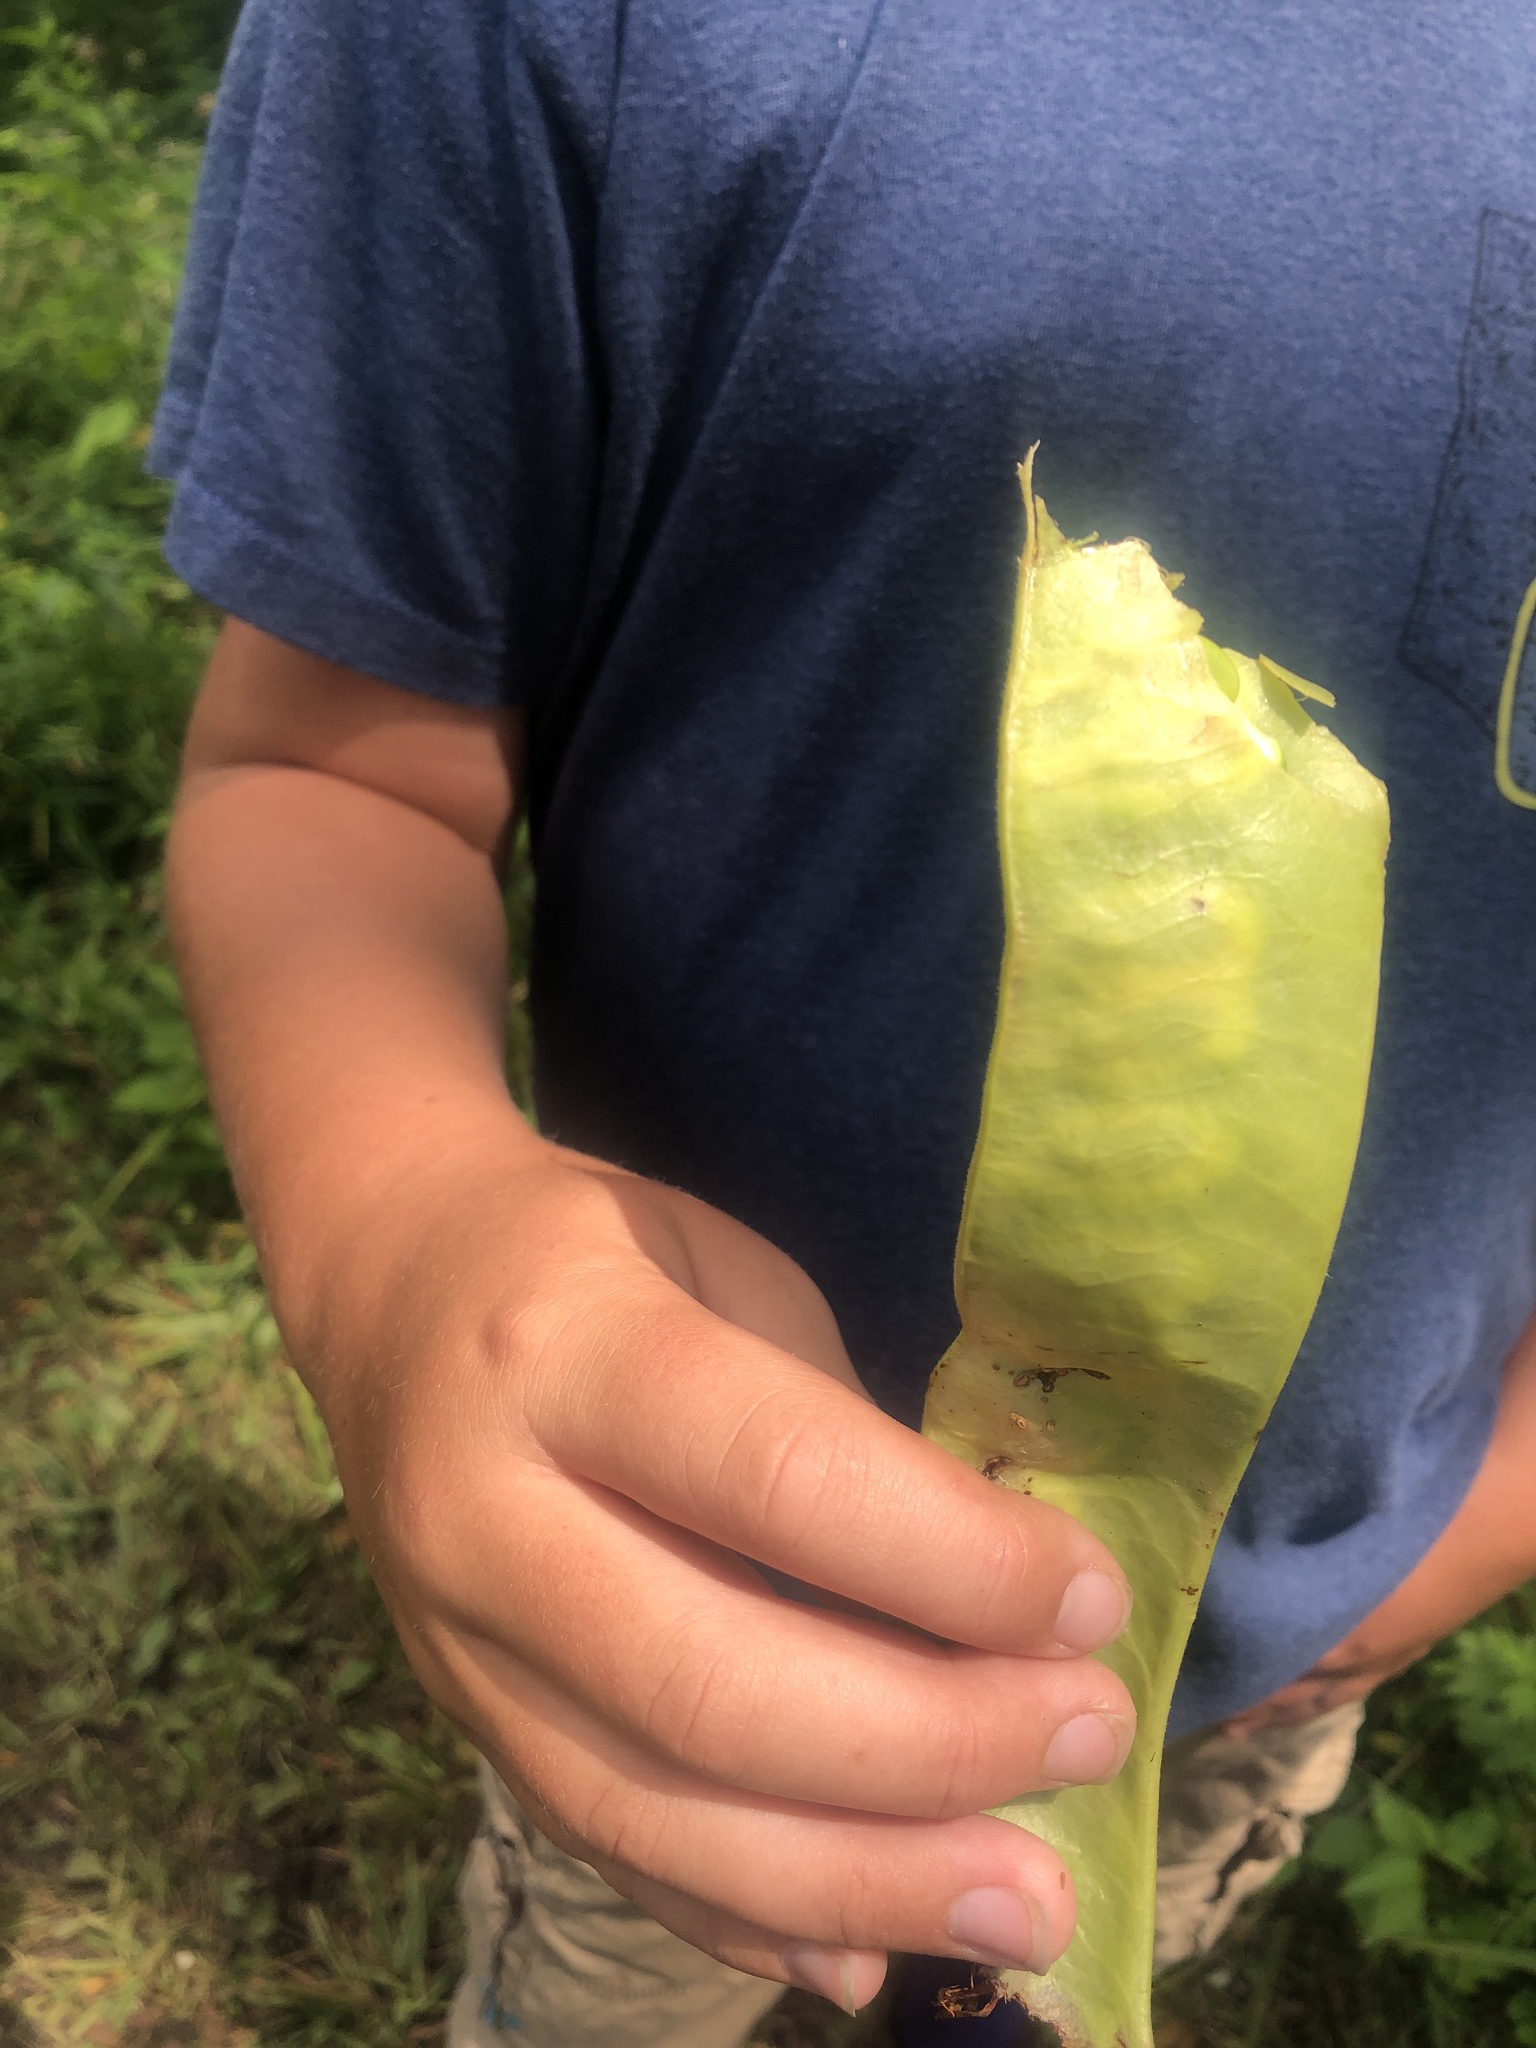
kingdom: Plantae
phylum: Tracheophyta
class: Magnoliopsida
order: Fabales
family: Fabaceae
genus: Gleditsia
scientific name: Gleditsia triacanthos
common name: Common honeylocust
